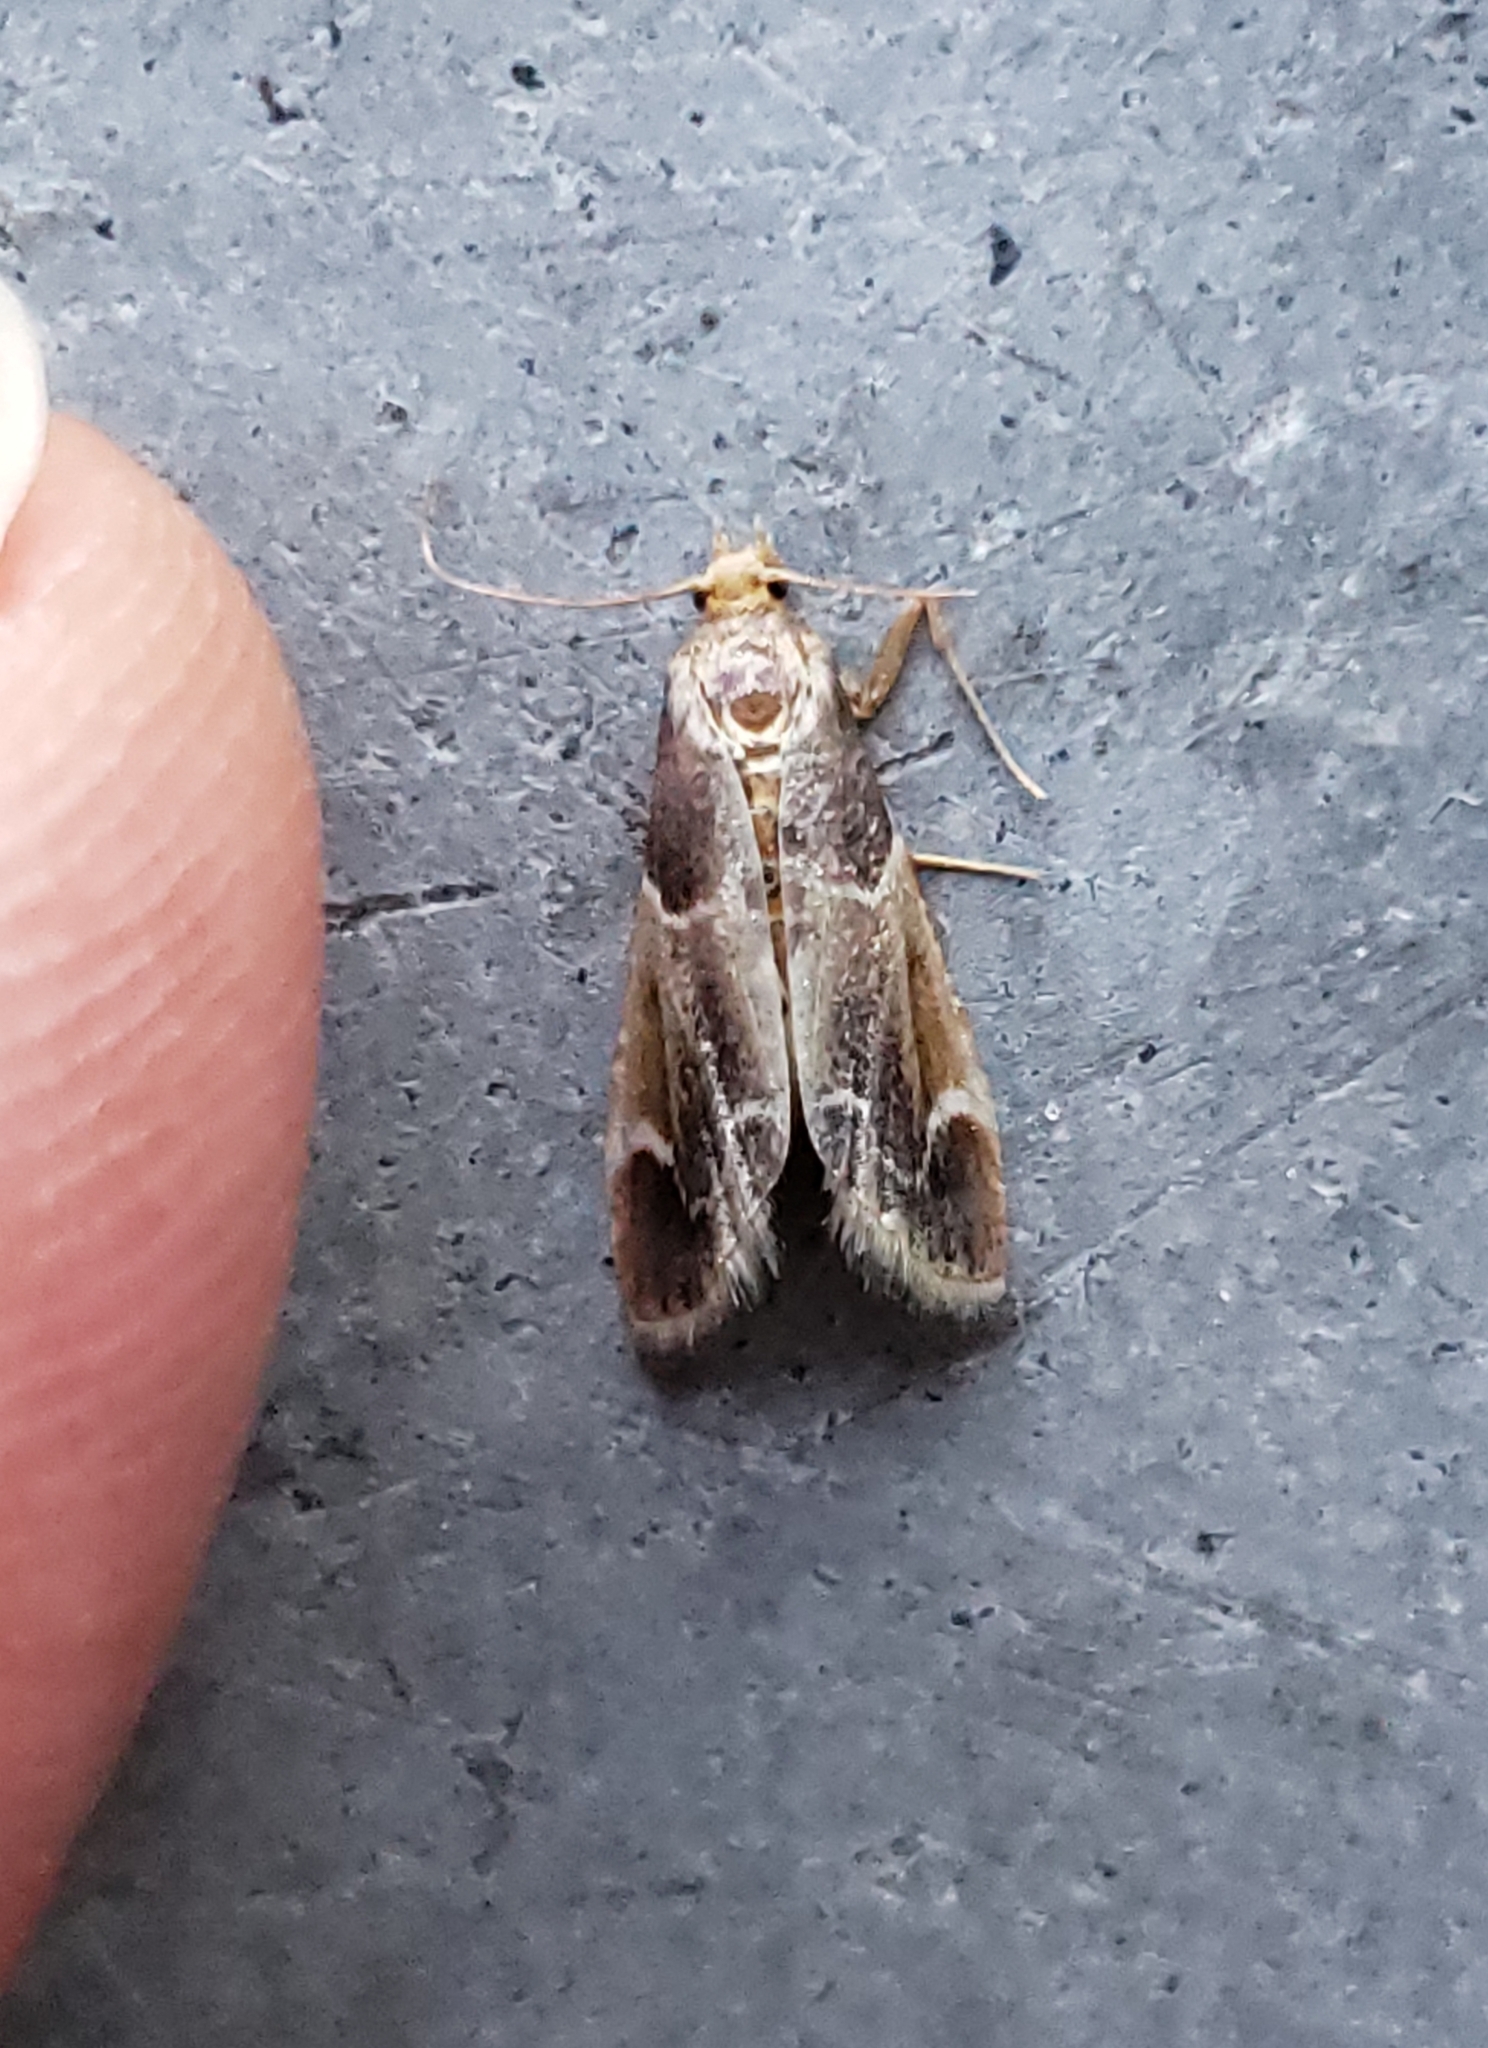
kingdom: Animalia
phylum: Arthropoda
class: Insecta
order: Lepidoptera
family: Pyralidae
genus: Pyralis
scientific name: Pyralis farinalis
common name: Meal moth
